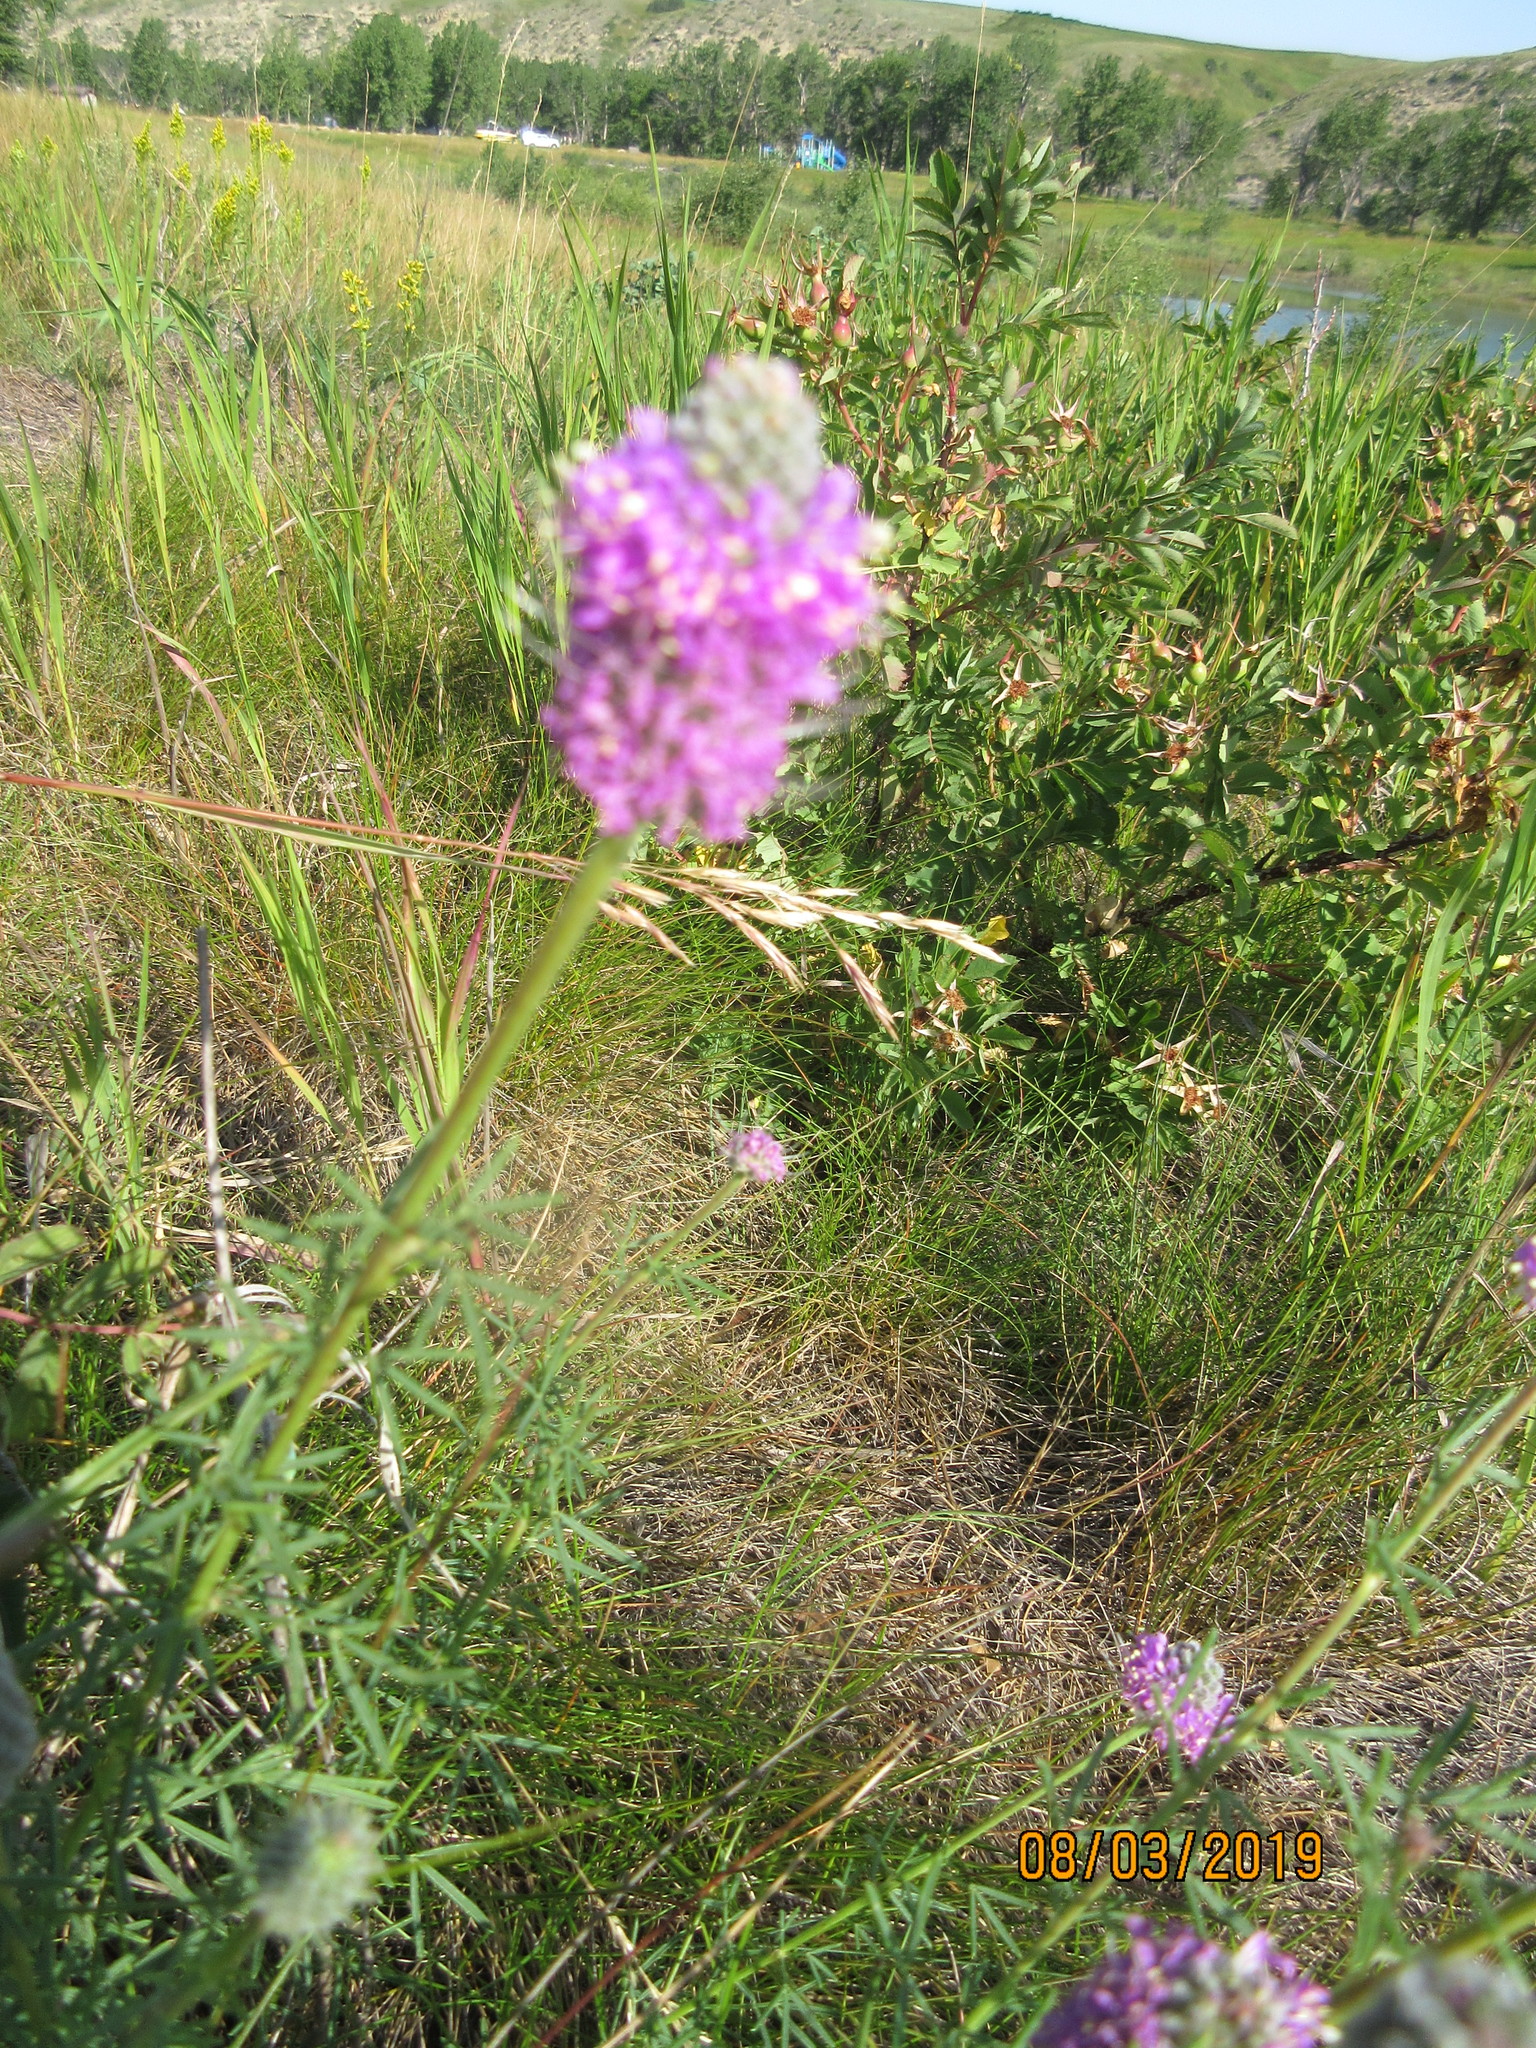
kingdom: Plantae
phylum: Tracheophyta
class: Magnoliopsida
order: Fabales
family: Fabaceae
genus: Dalea
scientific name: Dalea purpurea
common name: Purple prairie-clover
